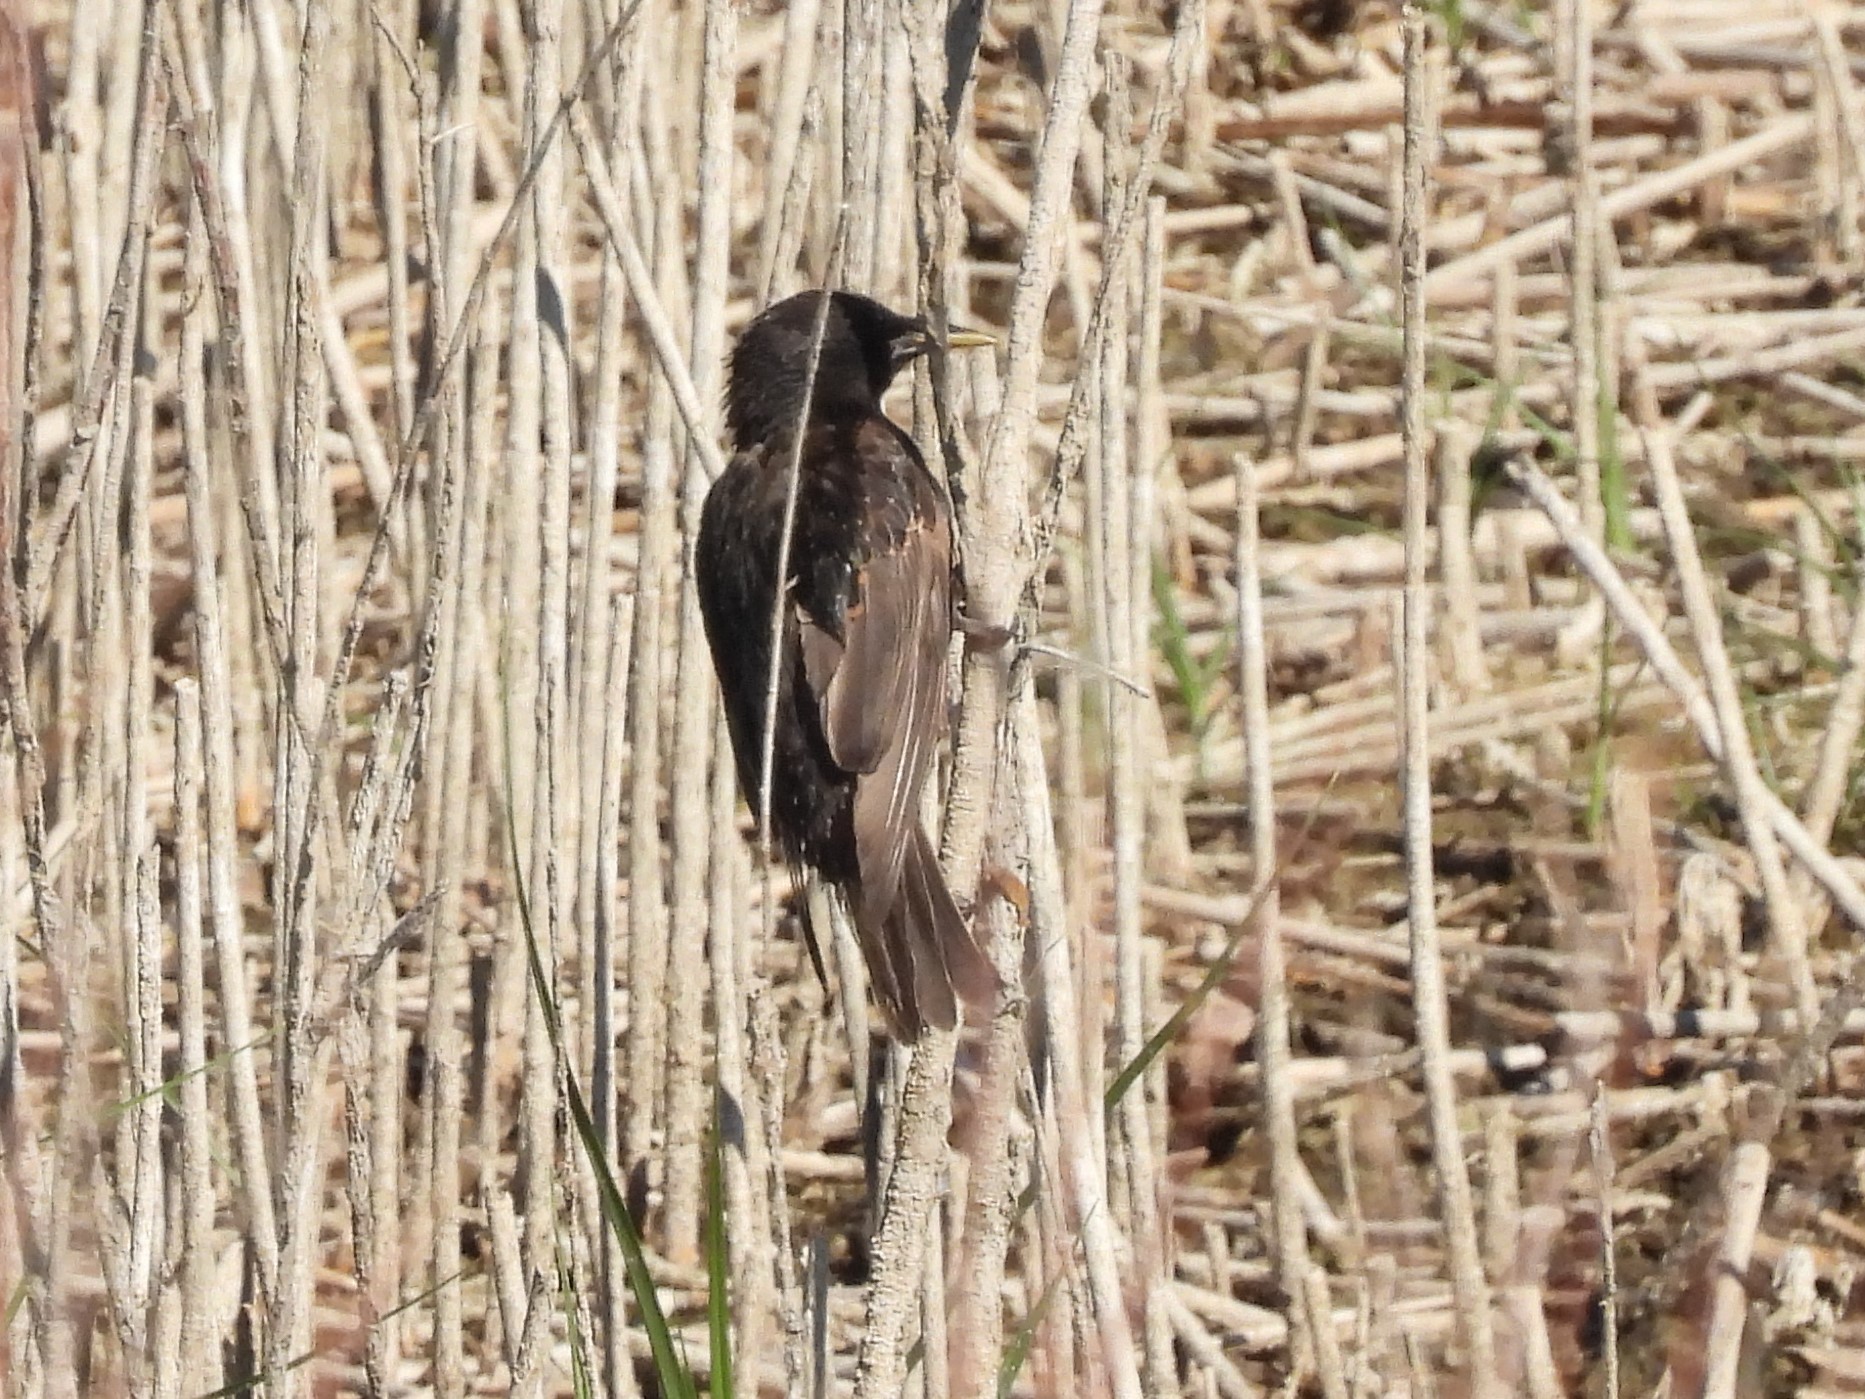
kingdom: Animalia
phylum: Chordata
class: Aves
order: Passeriformes
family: Sturnidae
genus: Sturnus
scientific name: Sturnus vulgaris
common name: Common starling
